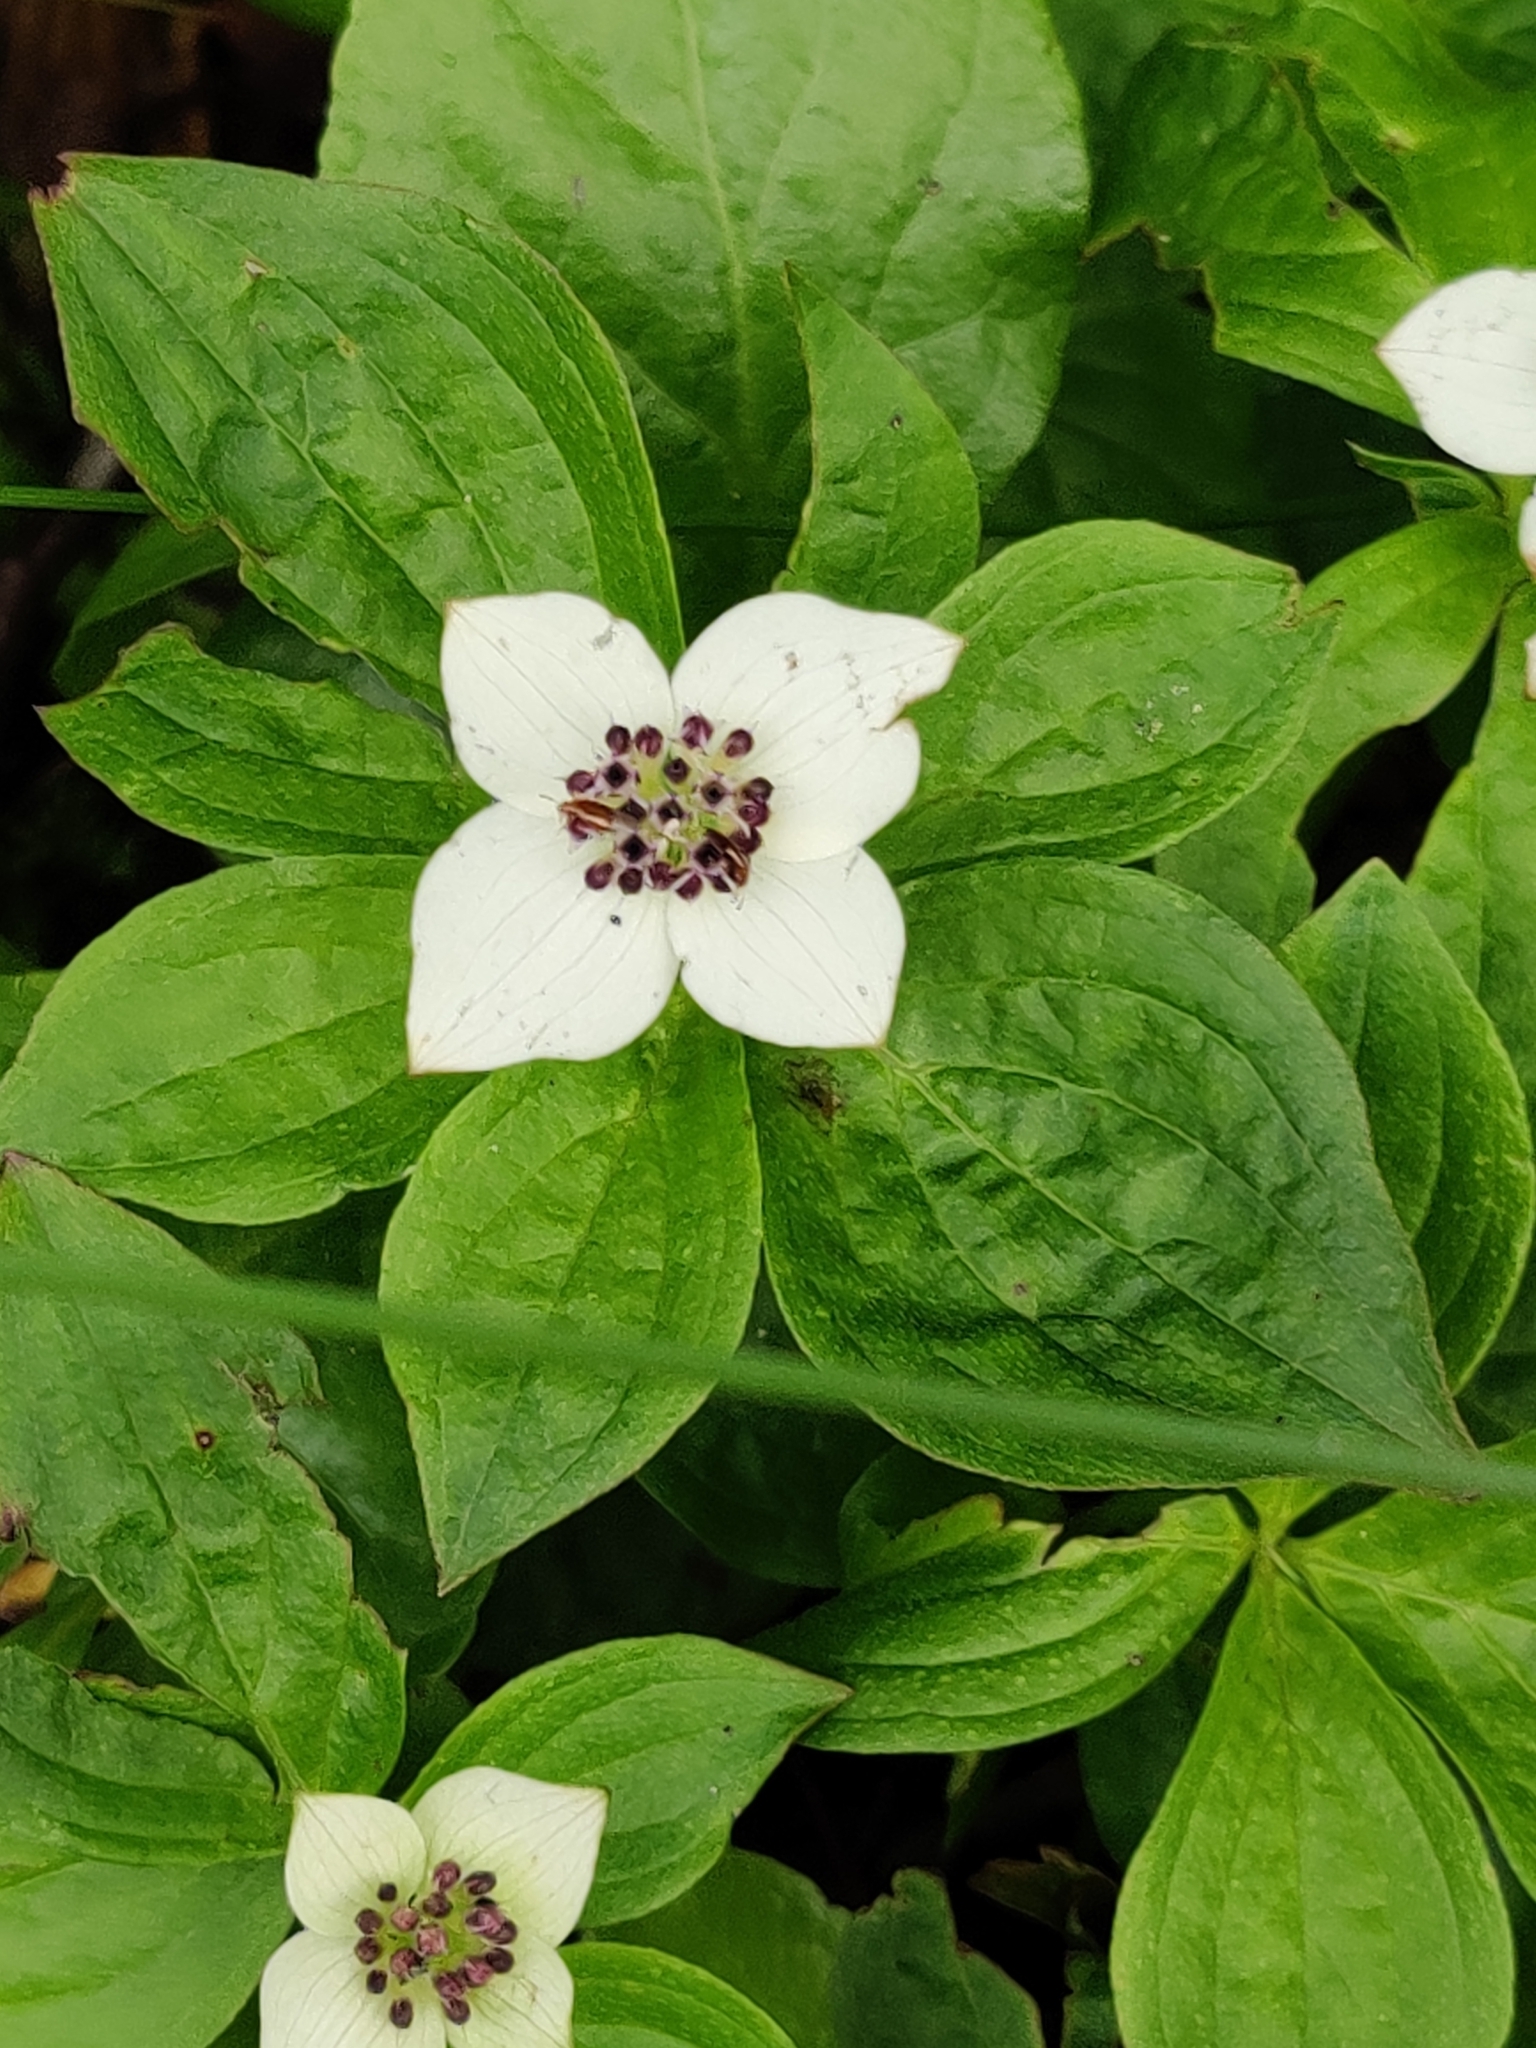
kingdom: Plantae
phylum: Tracheophyta
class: Magnoliopsida
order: Cornales
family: Cornaceae
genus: Cornus
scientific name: Cornus unalaschkensis
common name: Alaska bunchberry
